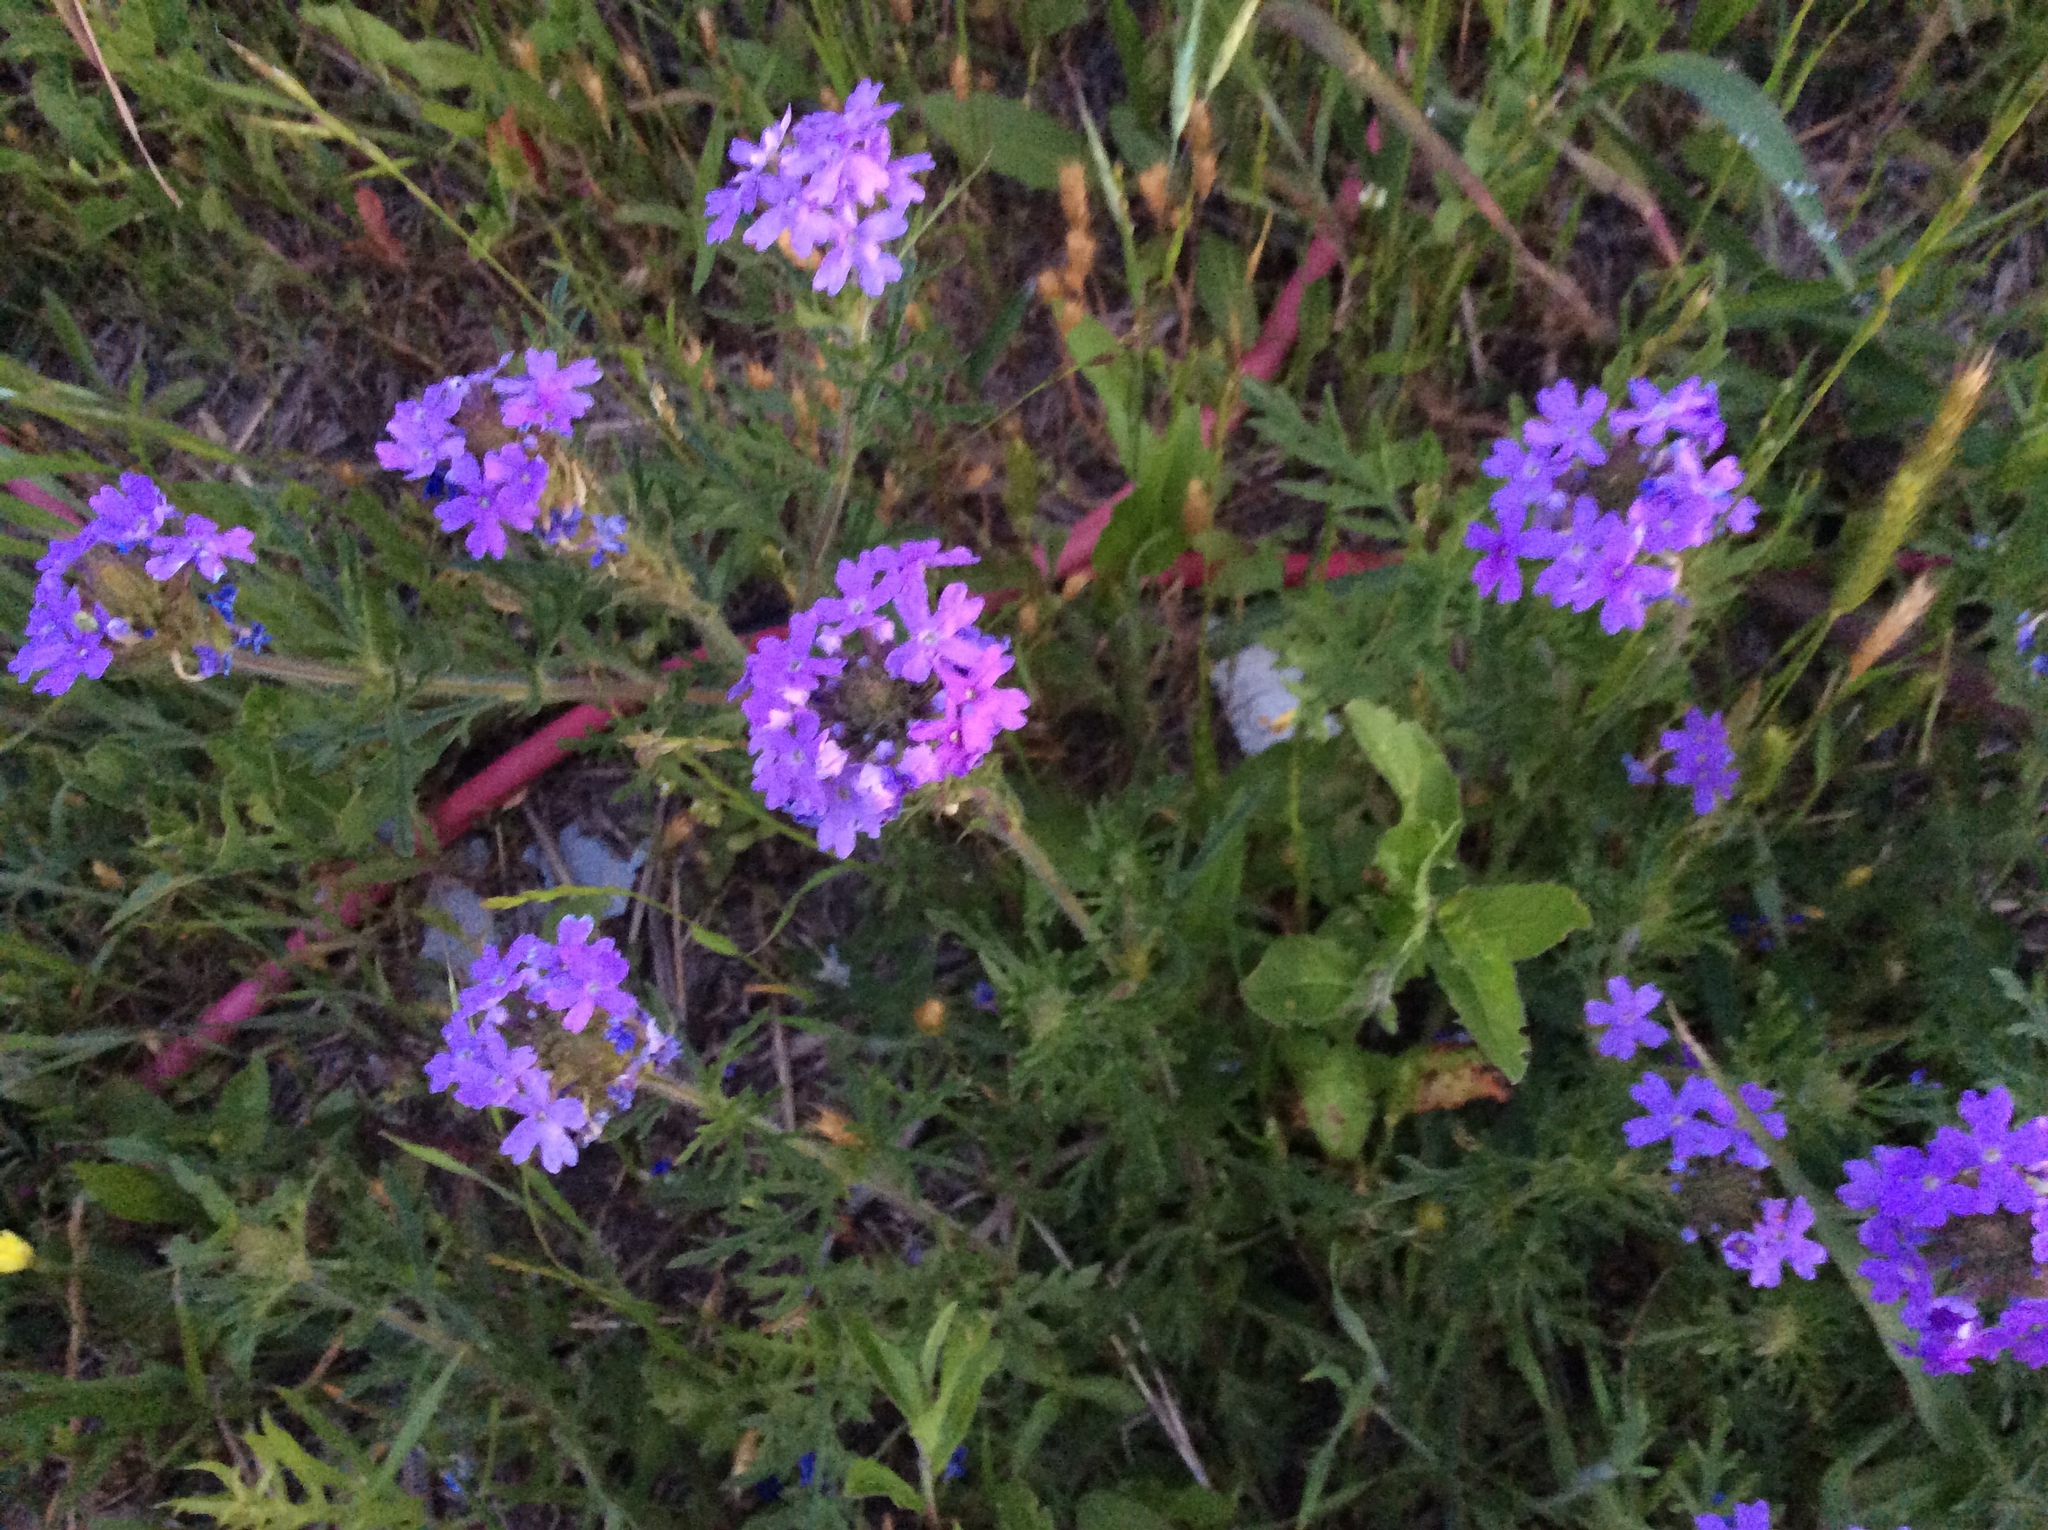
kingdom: Plantae
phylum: Tracheophyta
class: Magnoliopsida
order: Lamiales
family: Verbenaceae
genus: Verbena
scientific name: Verbena bipinnatifida
